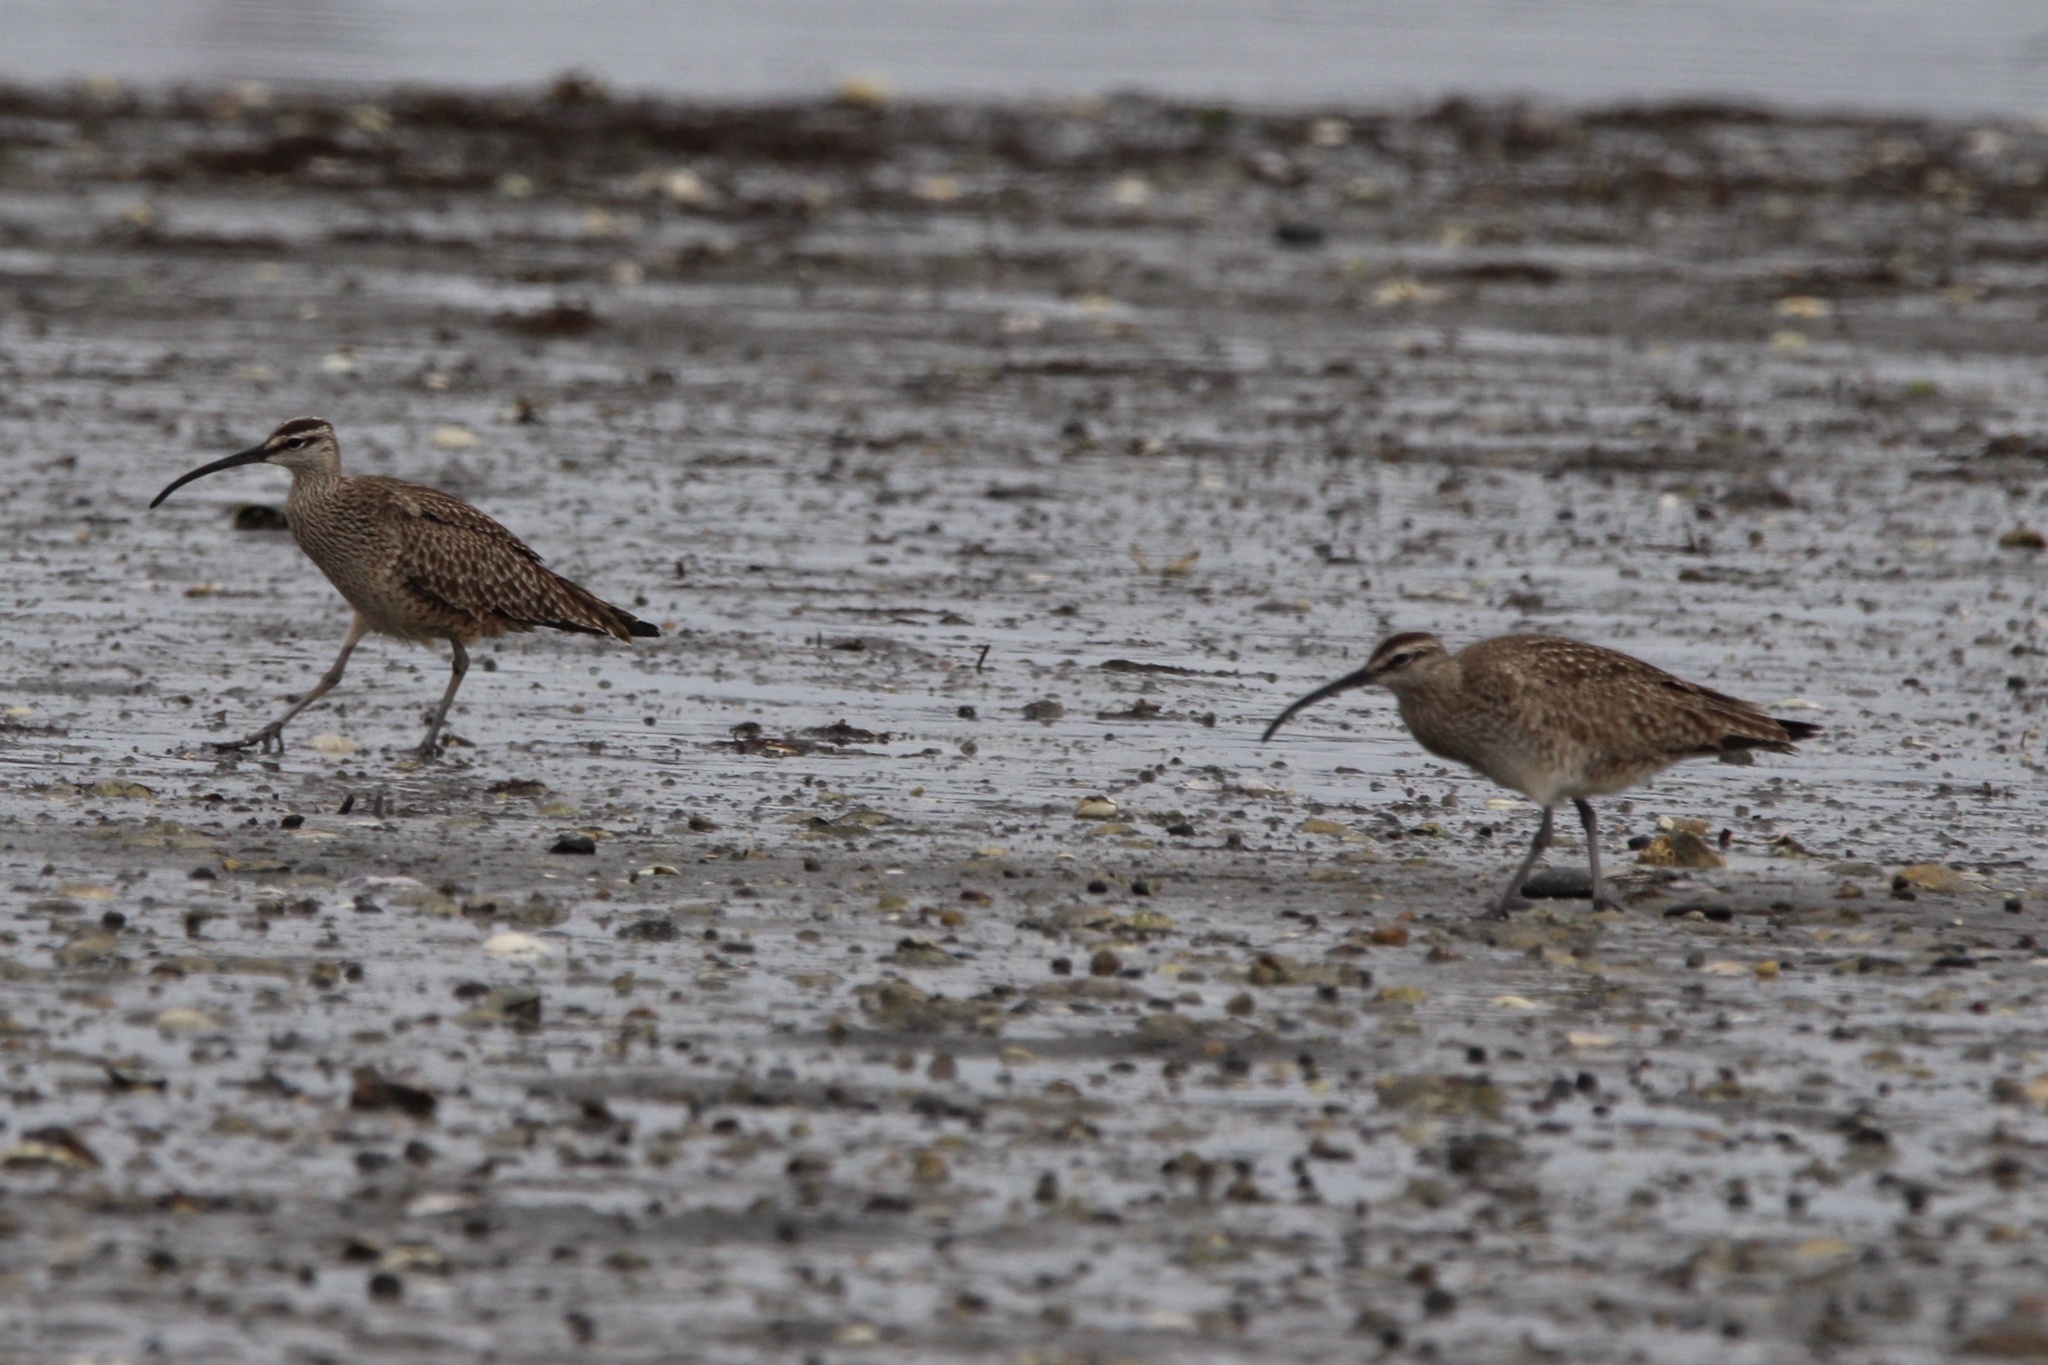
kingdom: Animalia
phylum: Chordata
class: Aves
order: Charadriiformes
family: Scolopacidae
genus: Numenius
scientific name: Numenius phaeopus
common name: Whimbrel
